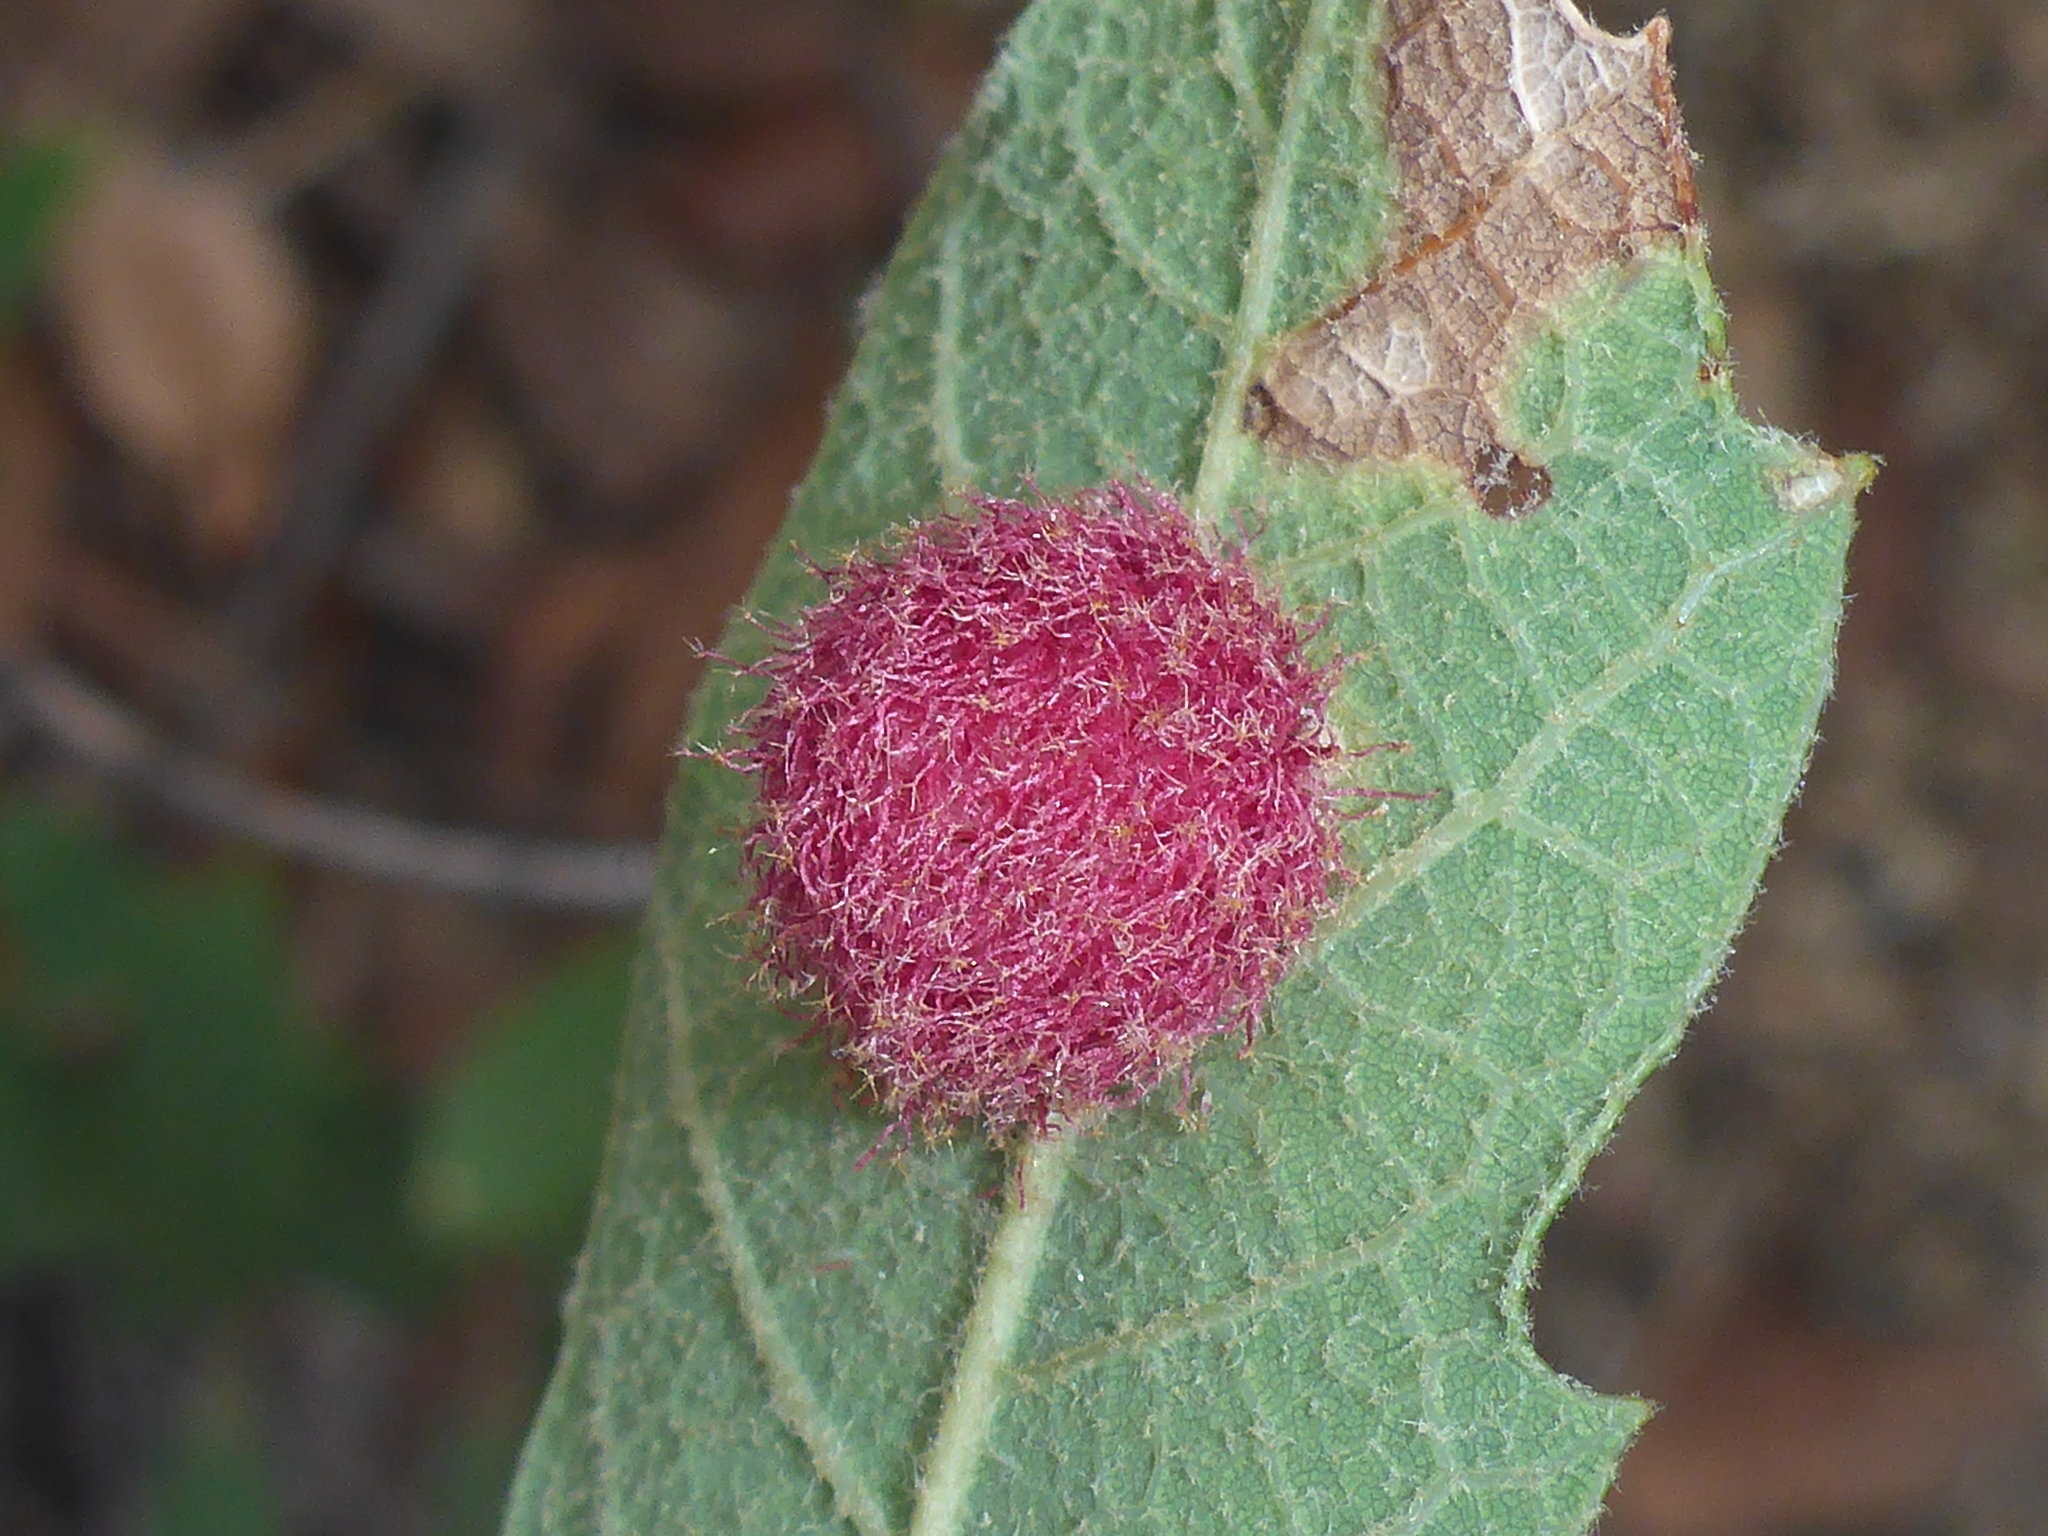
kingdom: Animalia
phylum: Arthropoda
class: Insecta
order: Hymenoptera
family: Cynipidae
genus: Cynips
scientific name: Cynips
